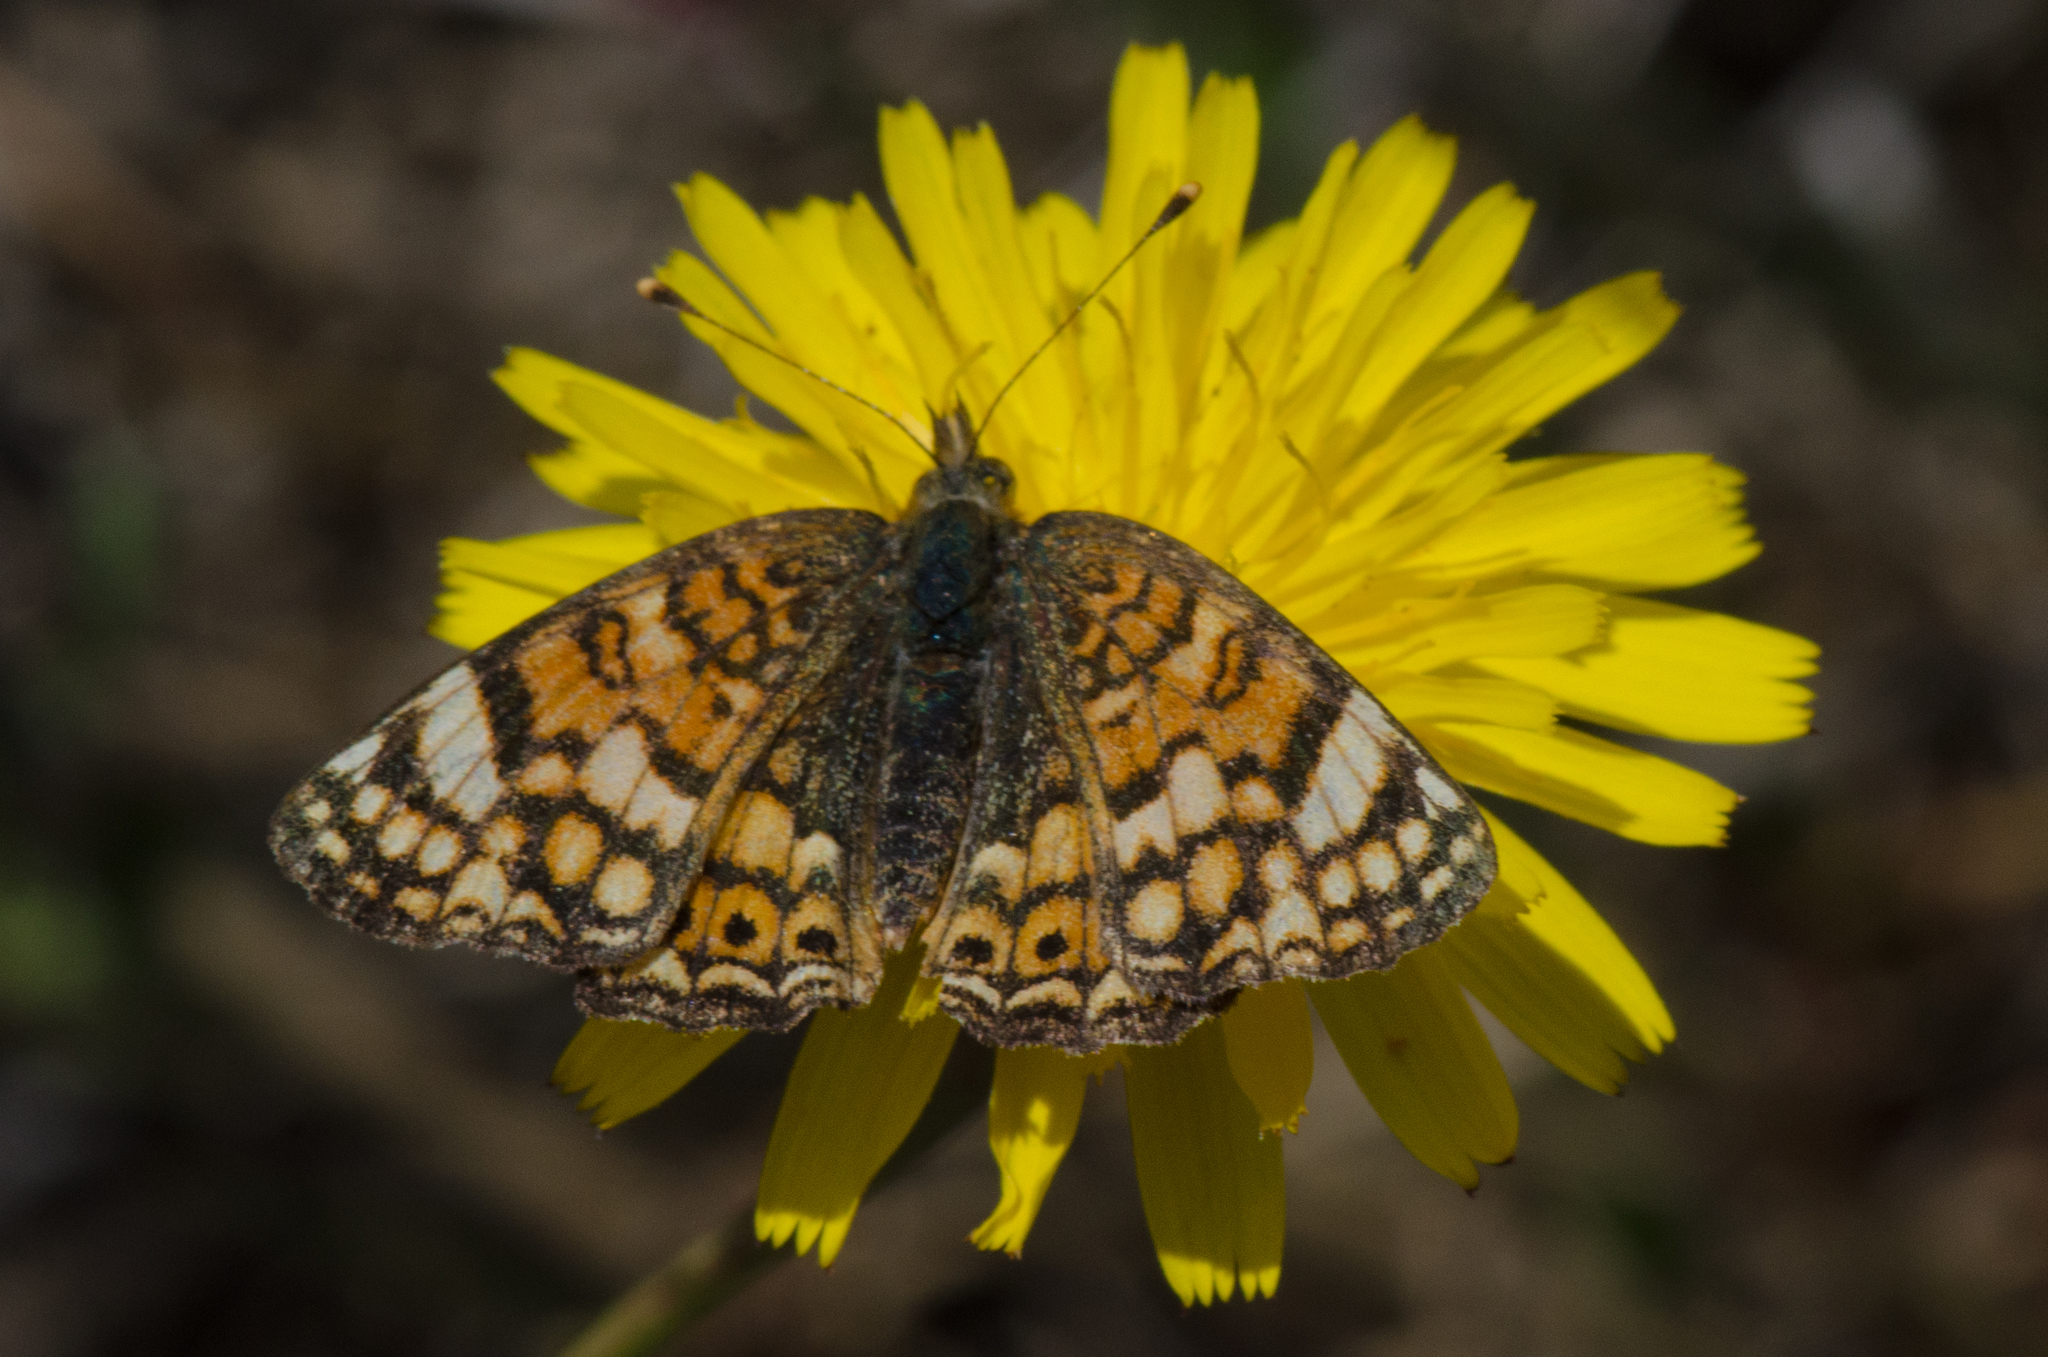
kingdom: Animalia
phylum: Arthropoda
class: Insecta
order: Lepidoptera
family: Nymphalidae
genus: Eresia
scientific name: Eresia aveyrona
